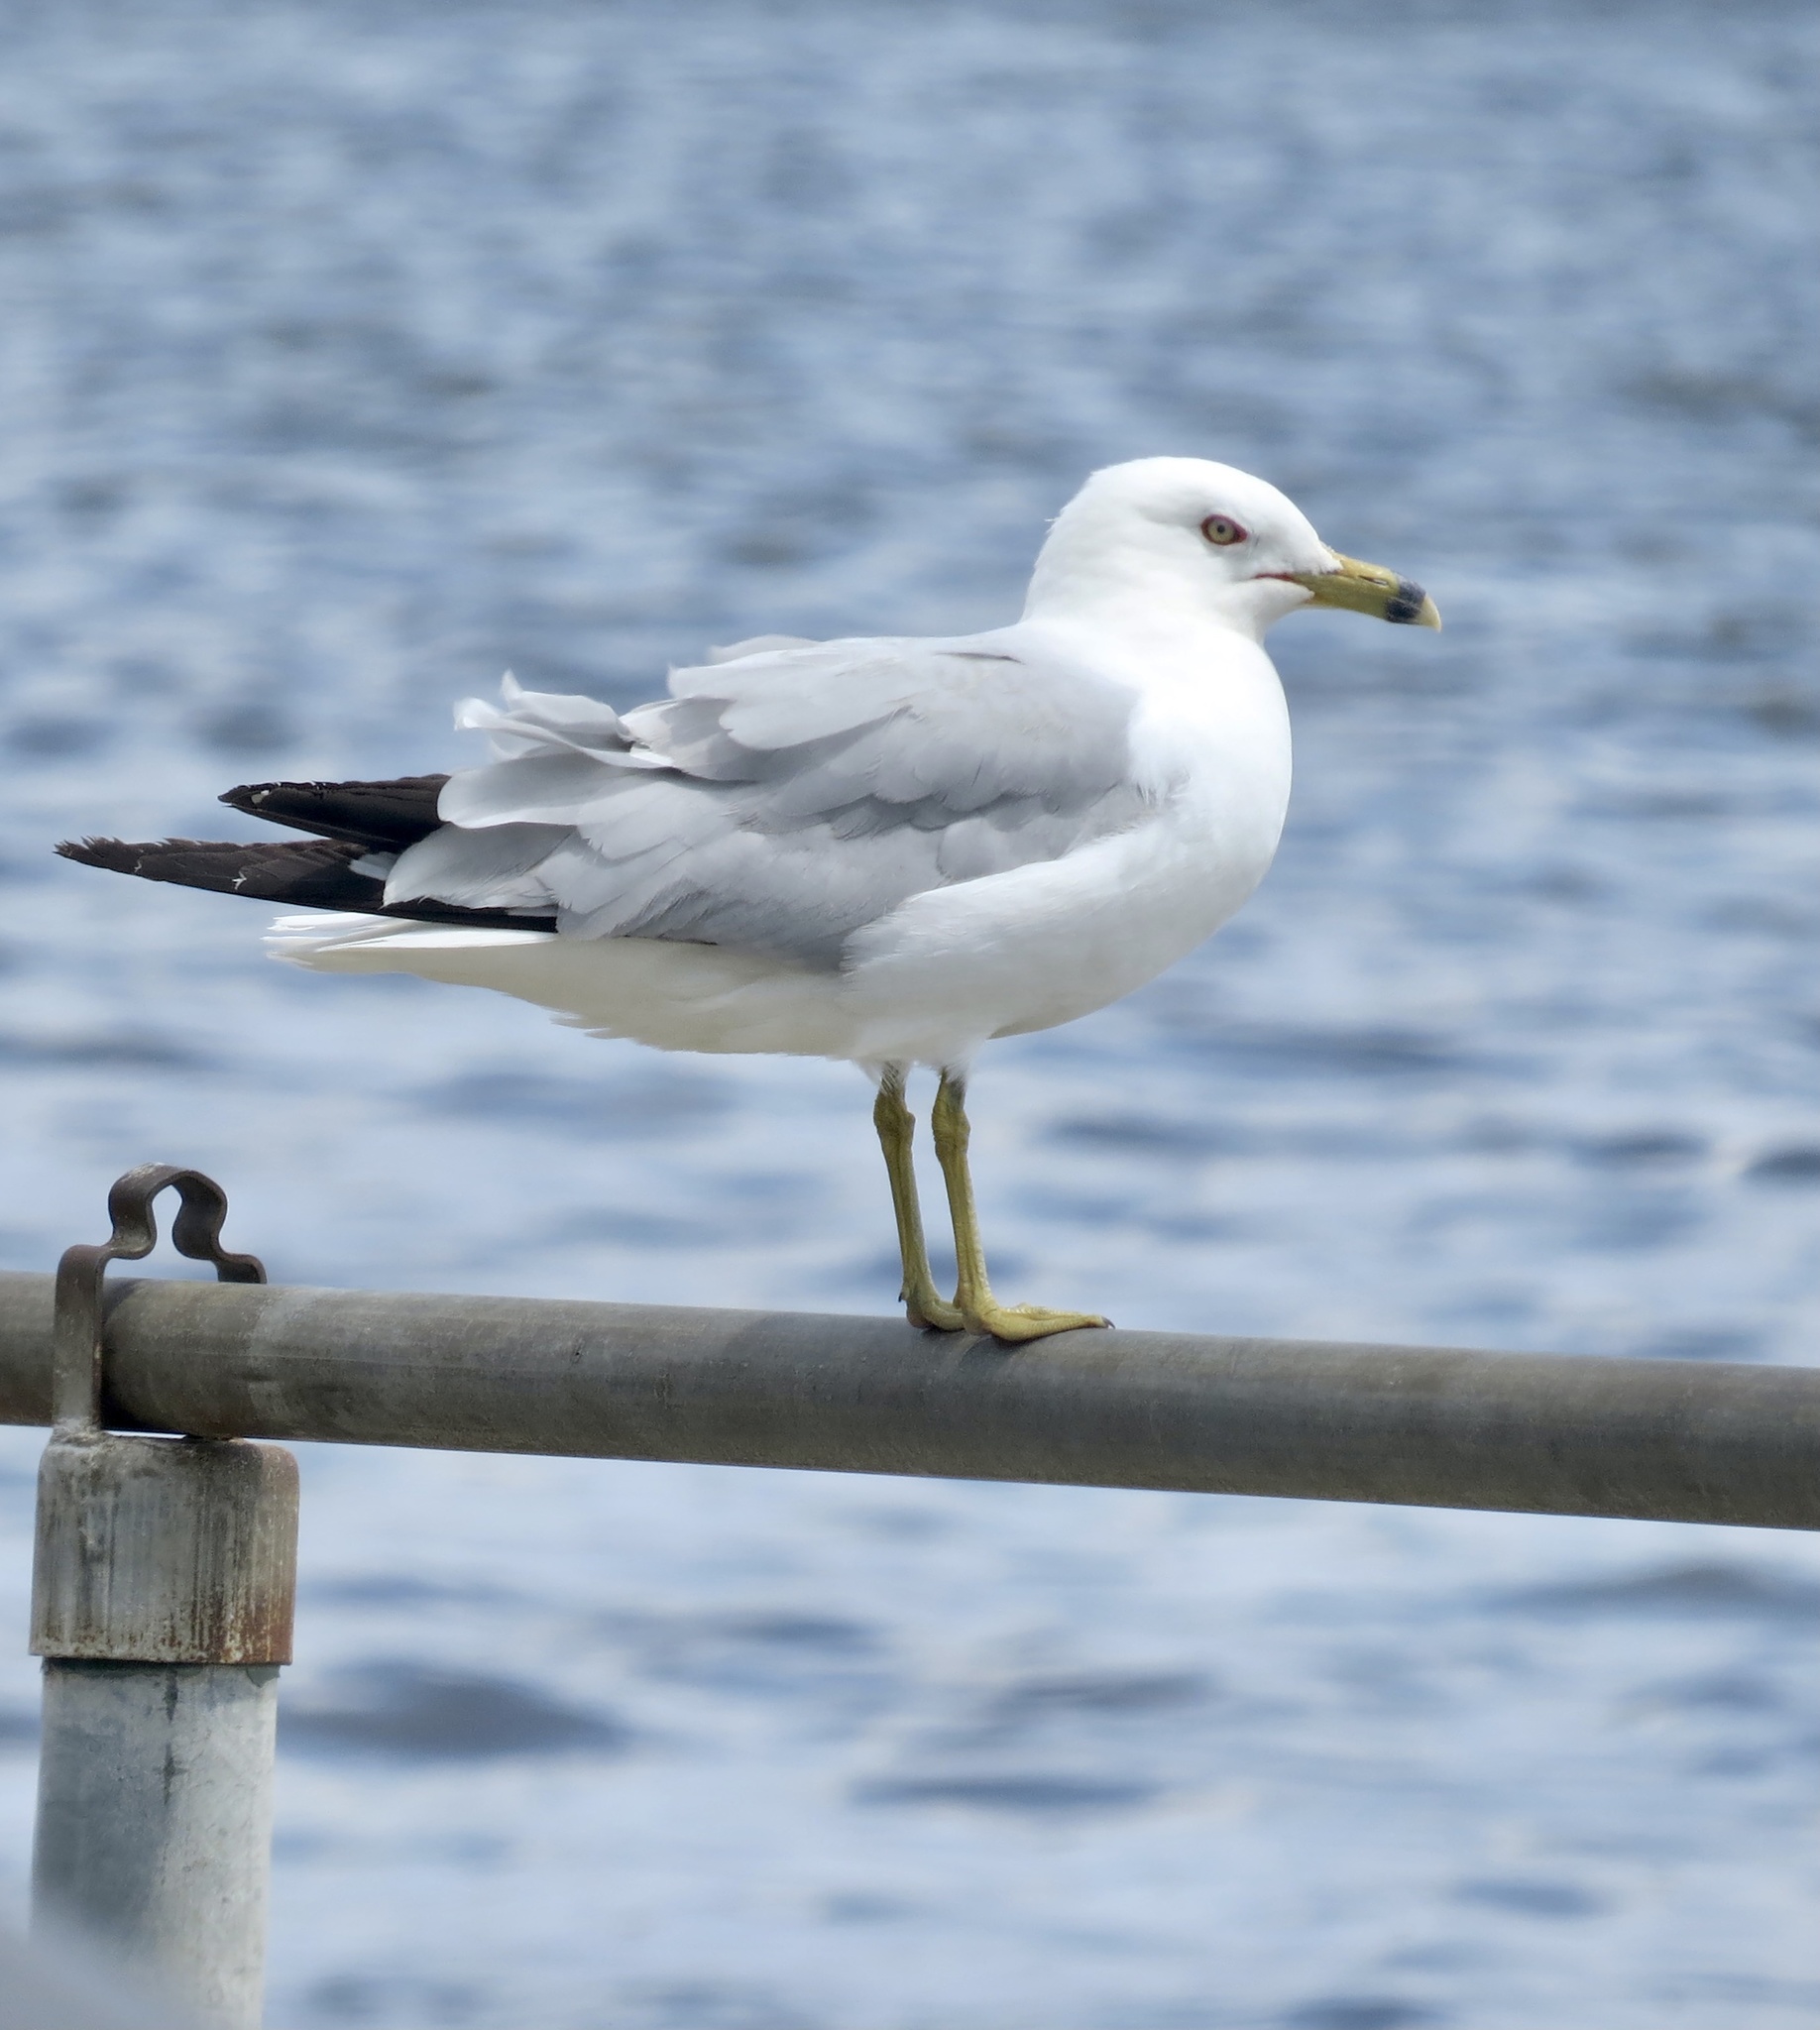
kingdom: Animalia
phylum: Chordata
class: Aves
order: Charadriiformes
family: Laridae
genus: Larus
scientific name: Larus delawarensis
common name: Ring-billed gull
